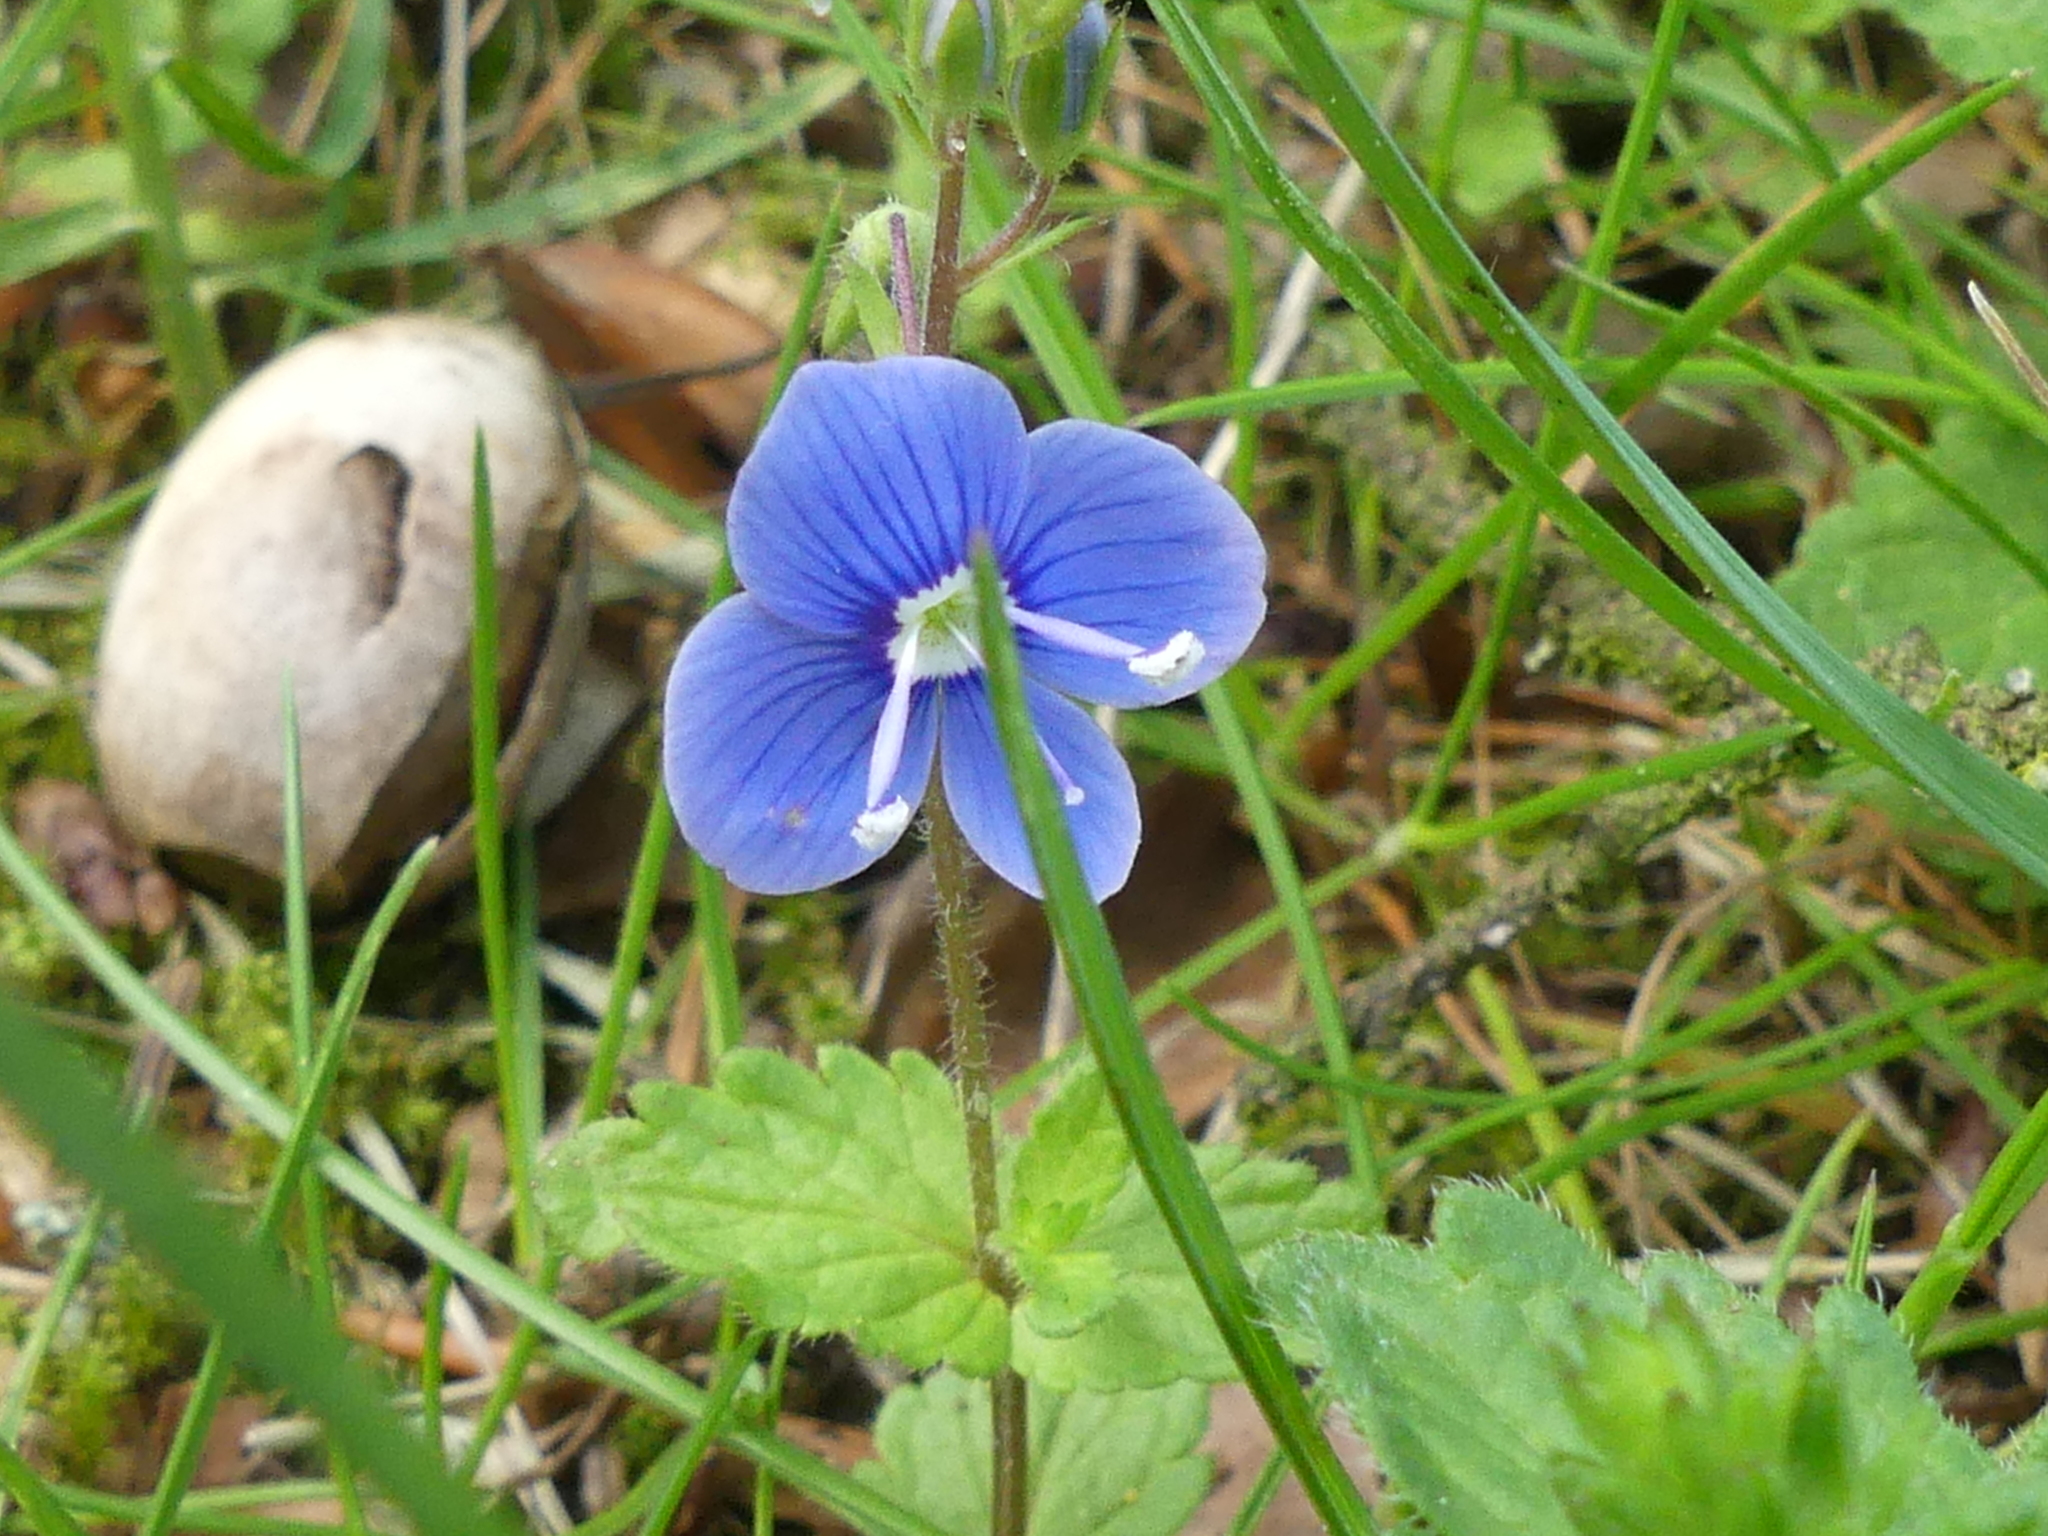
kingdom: Plantae
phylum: Tracheophyta
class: Magnoliopsida
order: Lamiales
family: Plantaginaceae
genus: Veronica
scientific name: Veronica chamaedrys
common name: Germander speedwell
